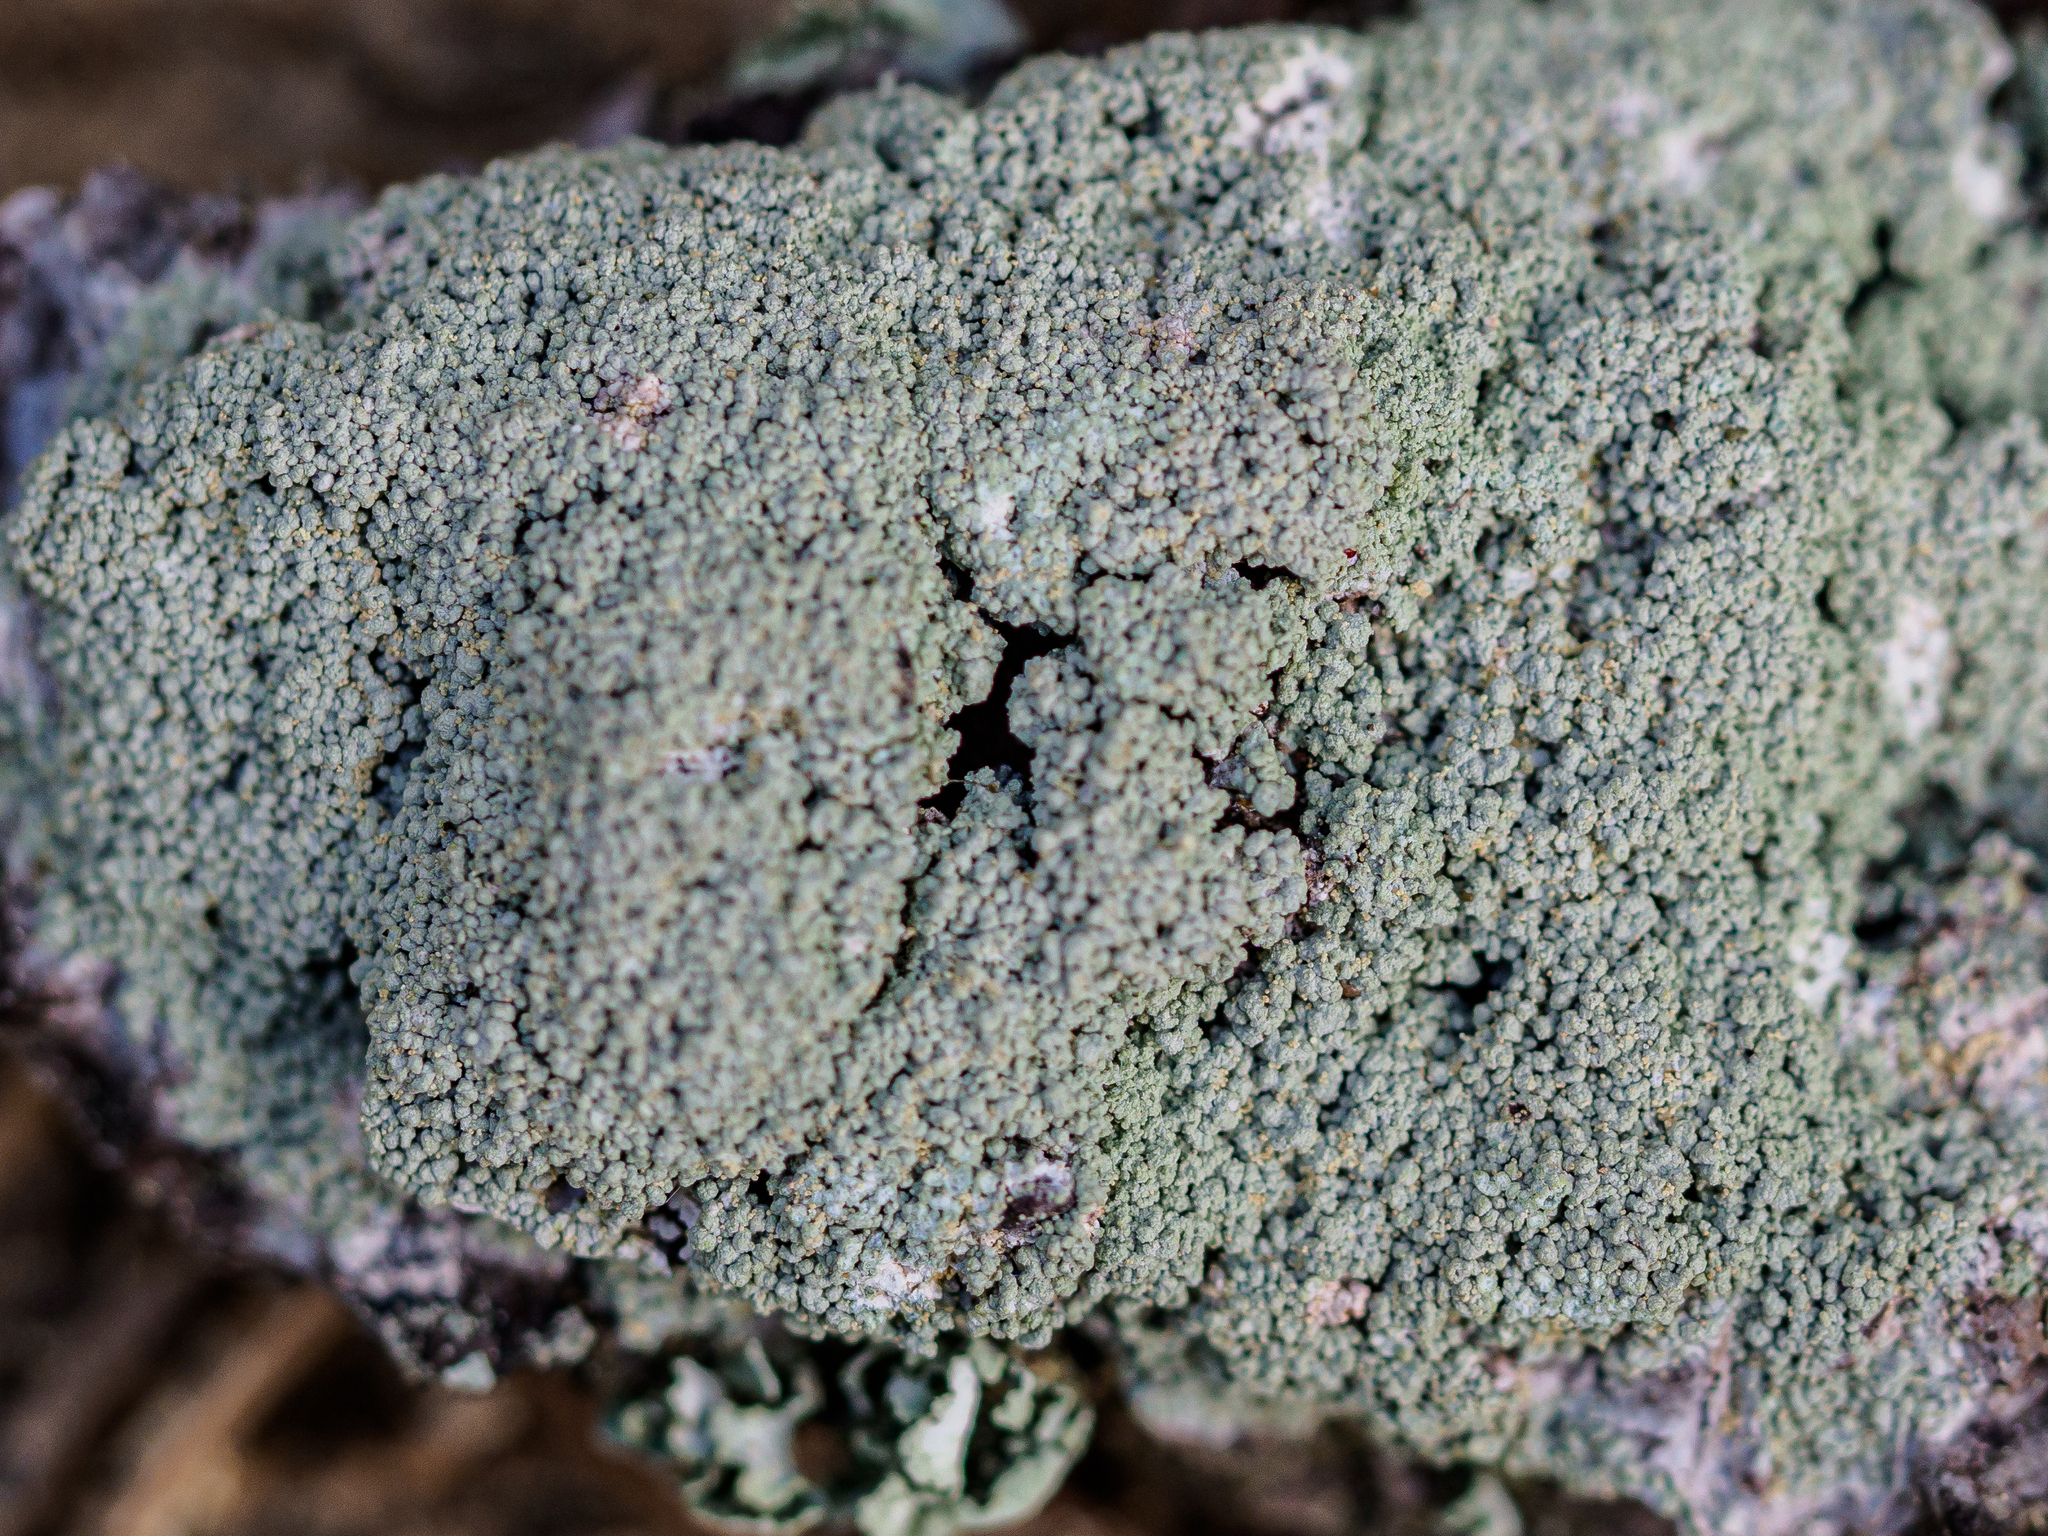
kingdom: Fungi
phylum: Ascomycota
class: Lecanoromycetes
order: Lecanorales
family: Sarrameanaceae
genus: Loxospora
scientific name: Loxospora elatina
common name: Sharpleaf ragged rim-lichen
